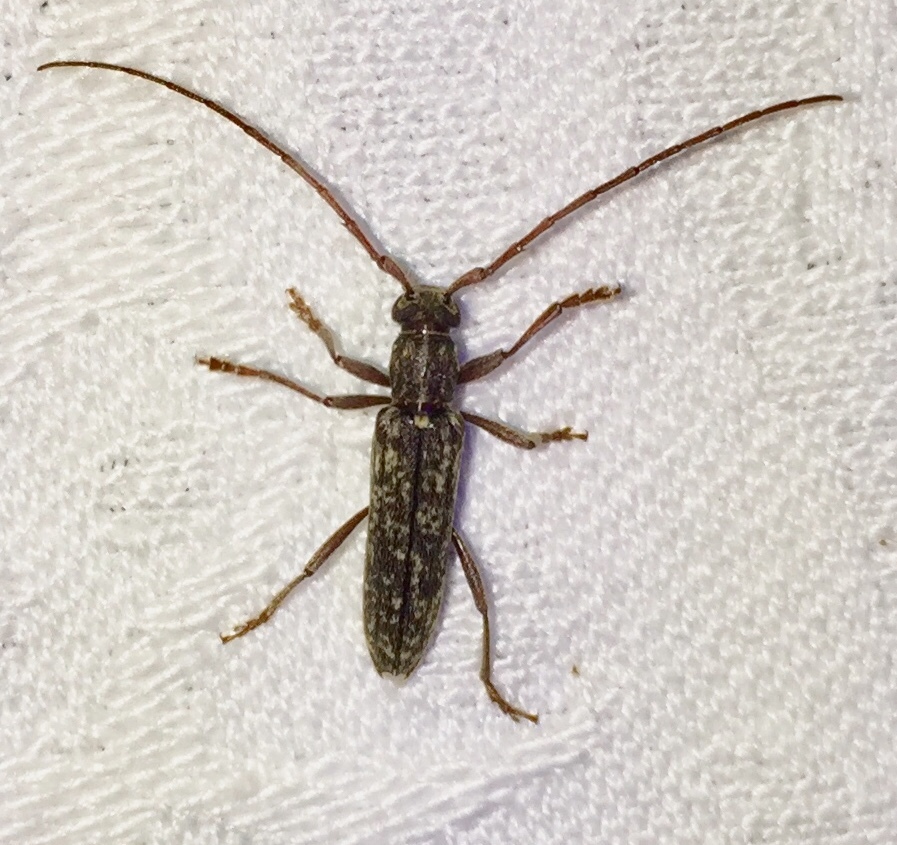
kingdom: Animalia
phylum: Arthropoda
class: Insecta
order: Coleoptera
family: Cerambycidae
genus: Anelaphus
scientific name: Anelaphus villosus
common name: Twig pruner
